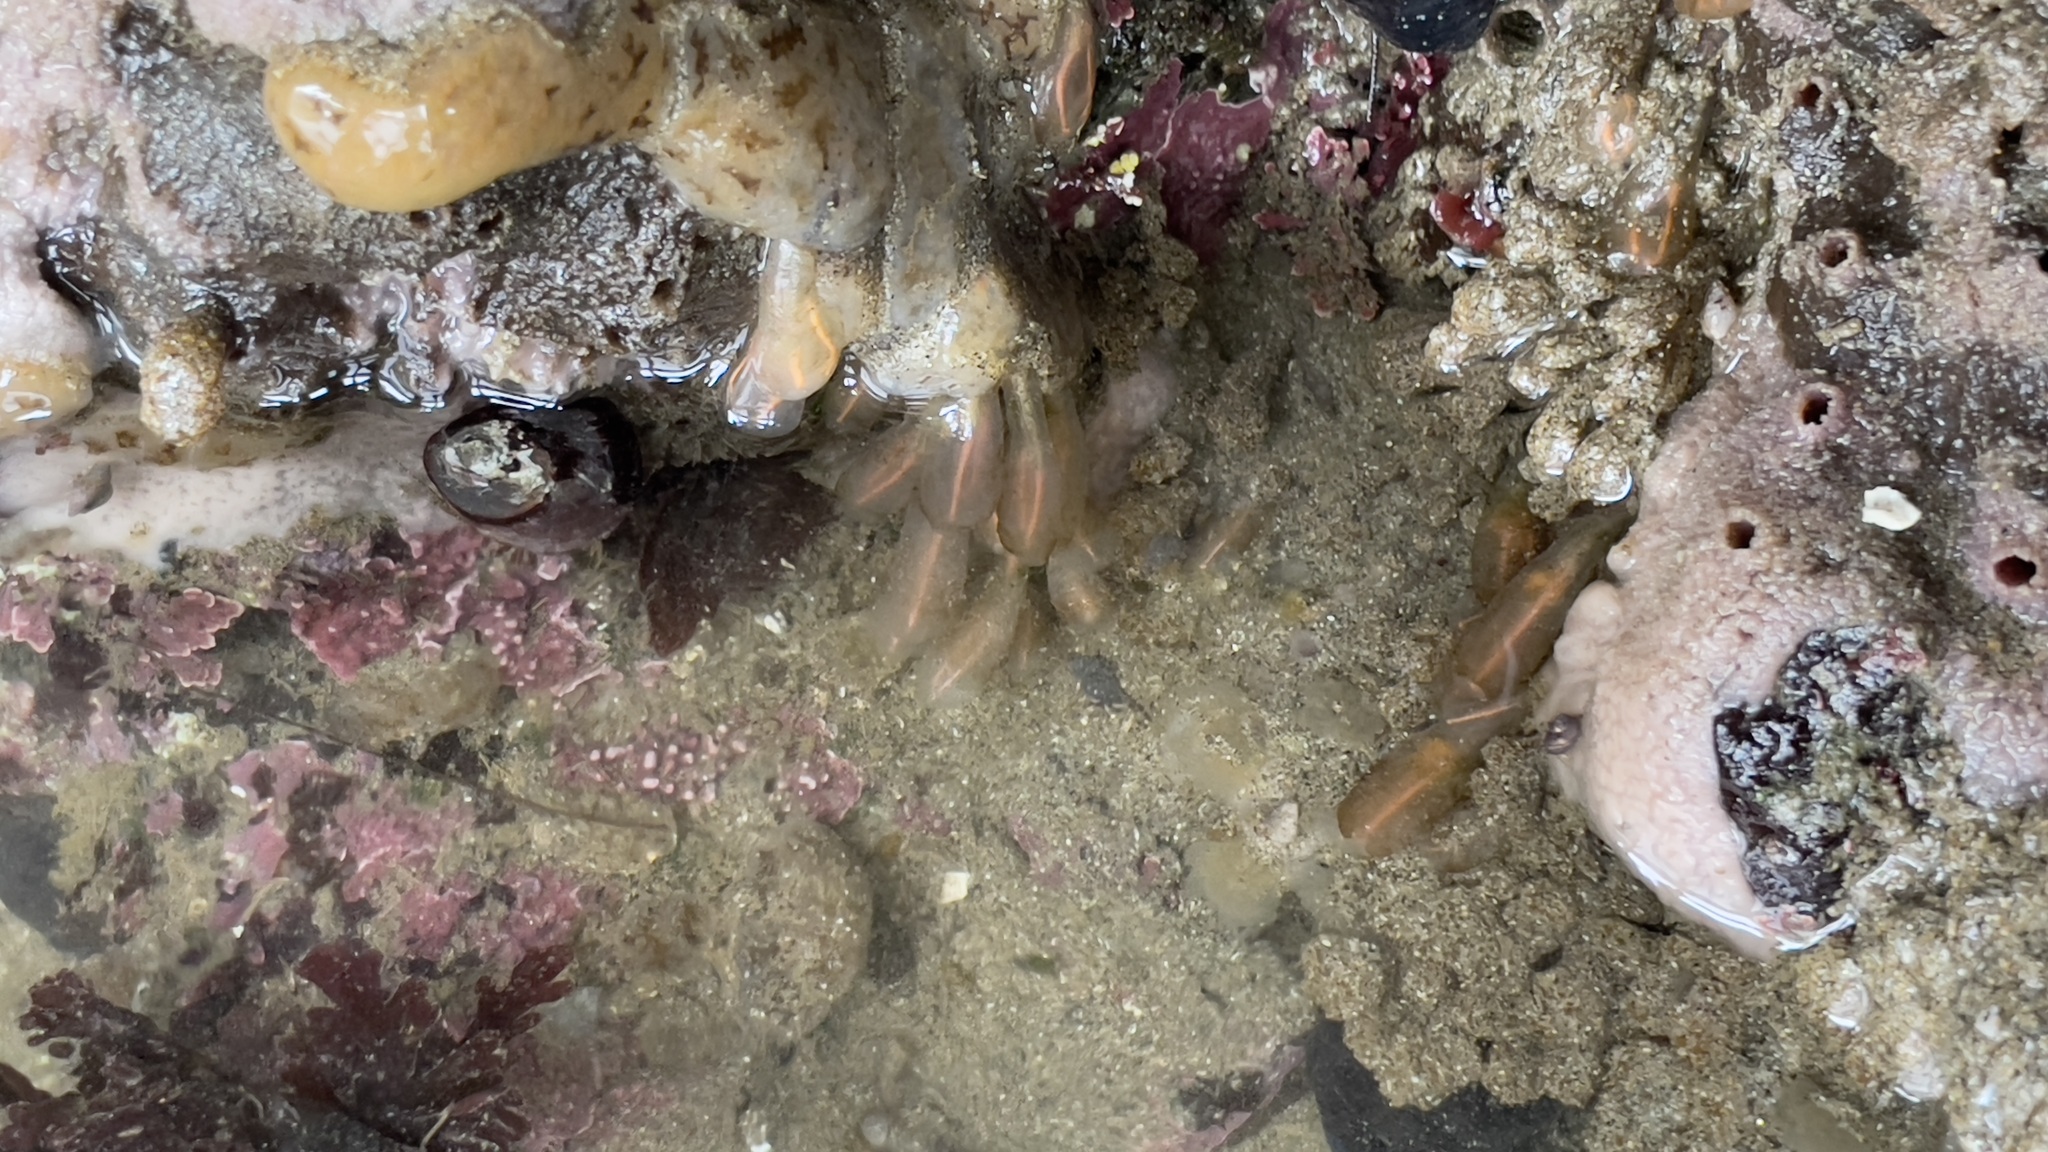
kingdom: Animalia
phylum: Chordata
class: Ascidiacea
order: Aplousobranchia
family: Clavelinidae
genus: Clavelina
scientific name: Clavelina huntsmani
